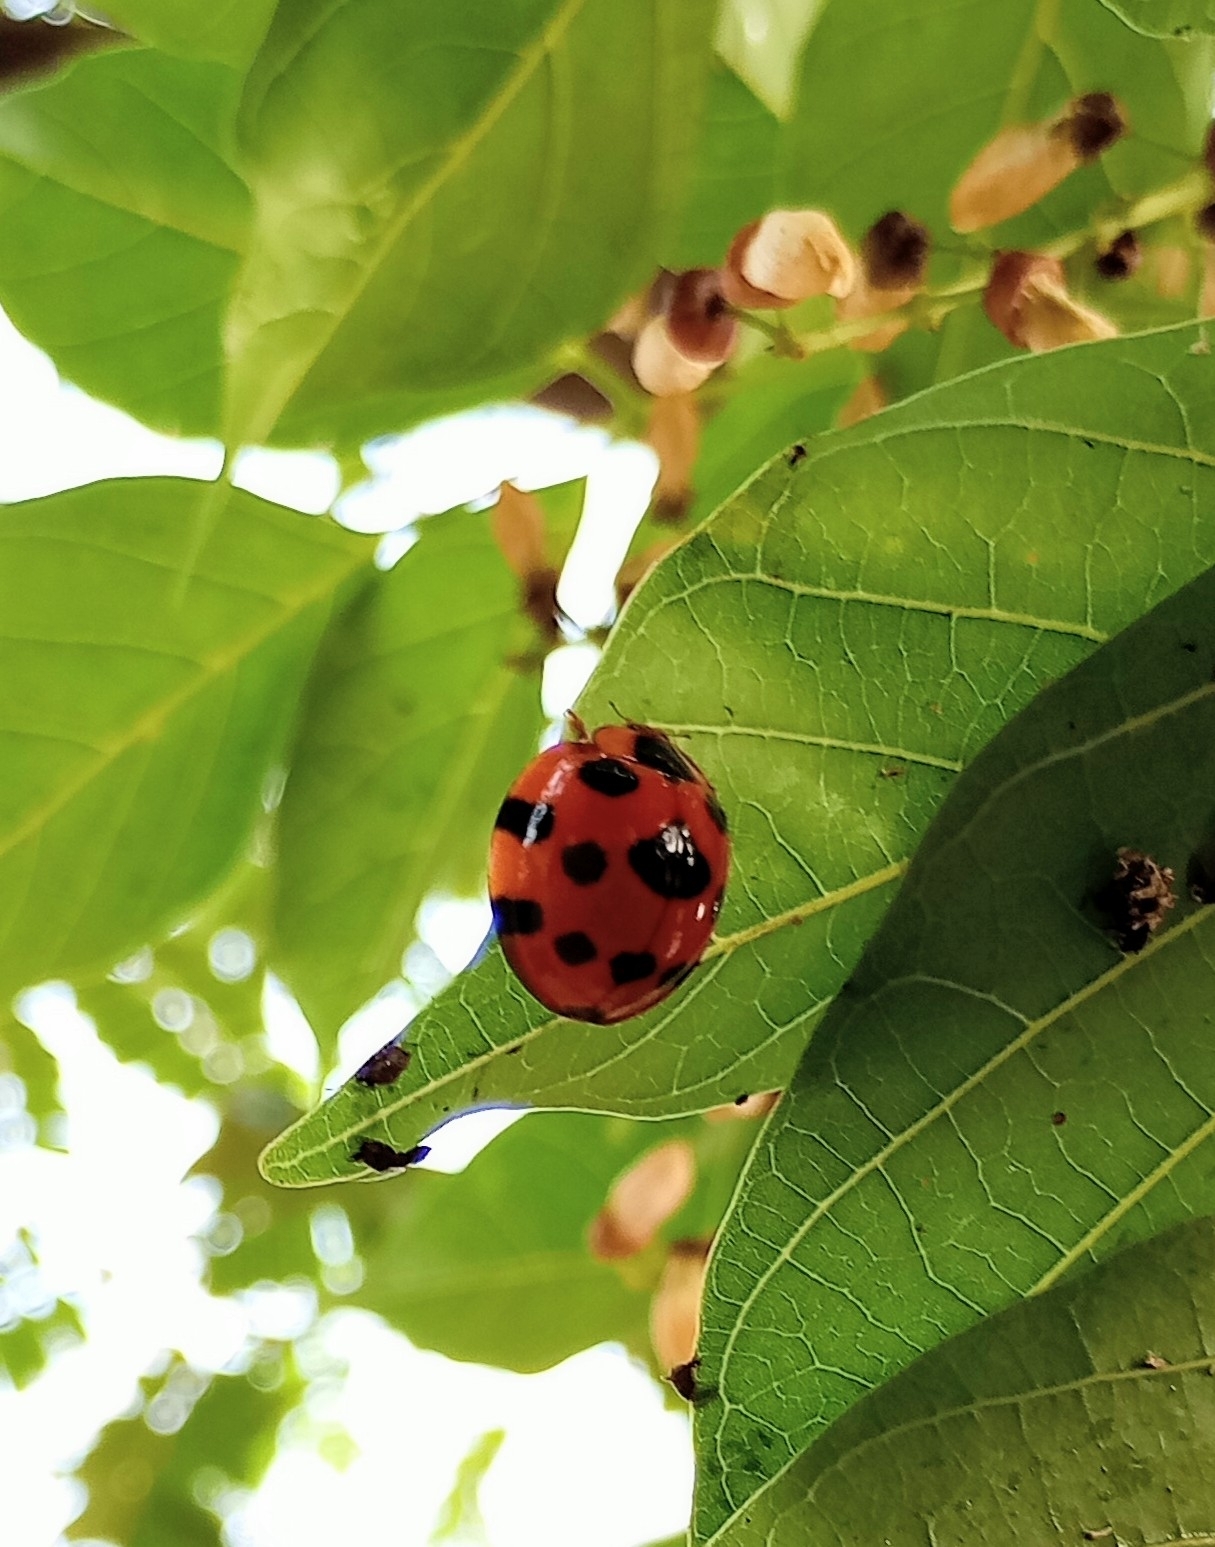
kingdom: Animalia
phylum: Arthropoda
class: Insecta
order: Coleoptera
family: Coccinellidae
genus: Synonycha
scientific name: Synonycha grandis
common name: Lady beetle
